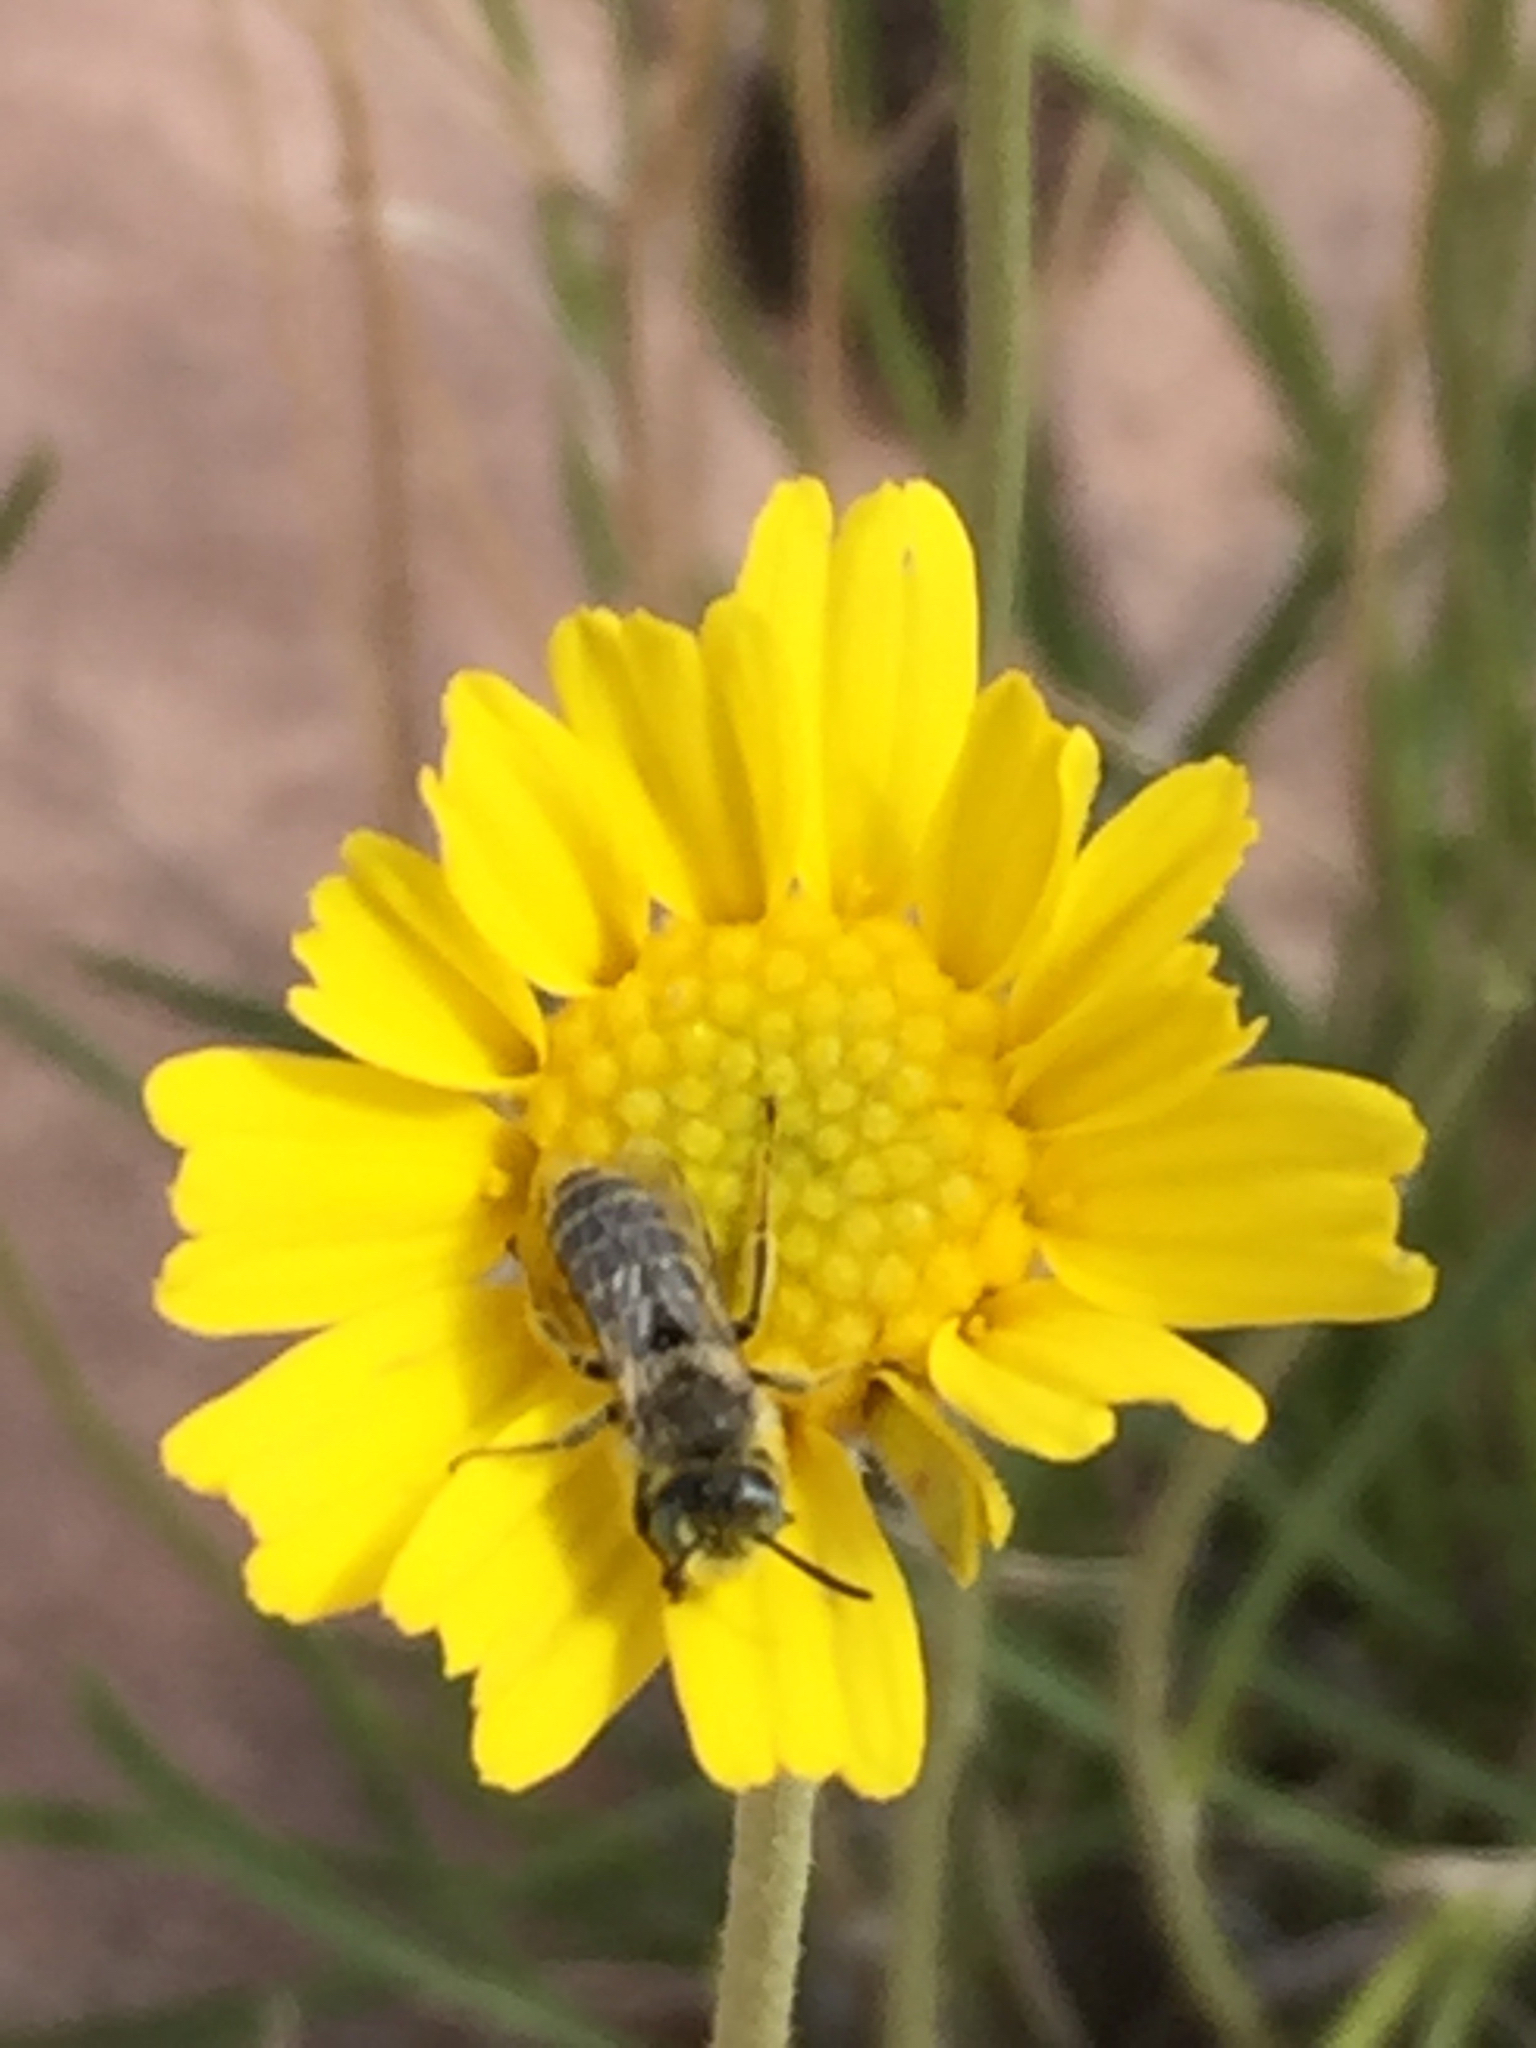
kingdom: Animalia
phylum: Arthropoda
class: Insecta
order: Hymenoptera
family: Melittidae
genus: Hesperapis
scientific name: Hesperapis
